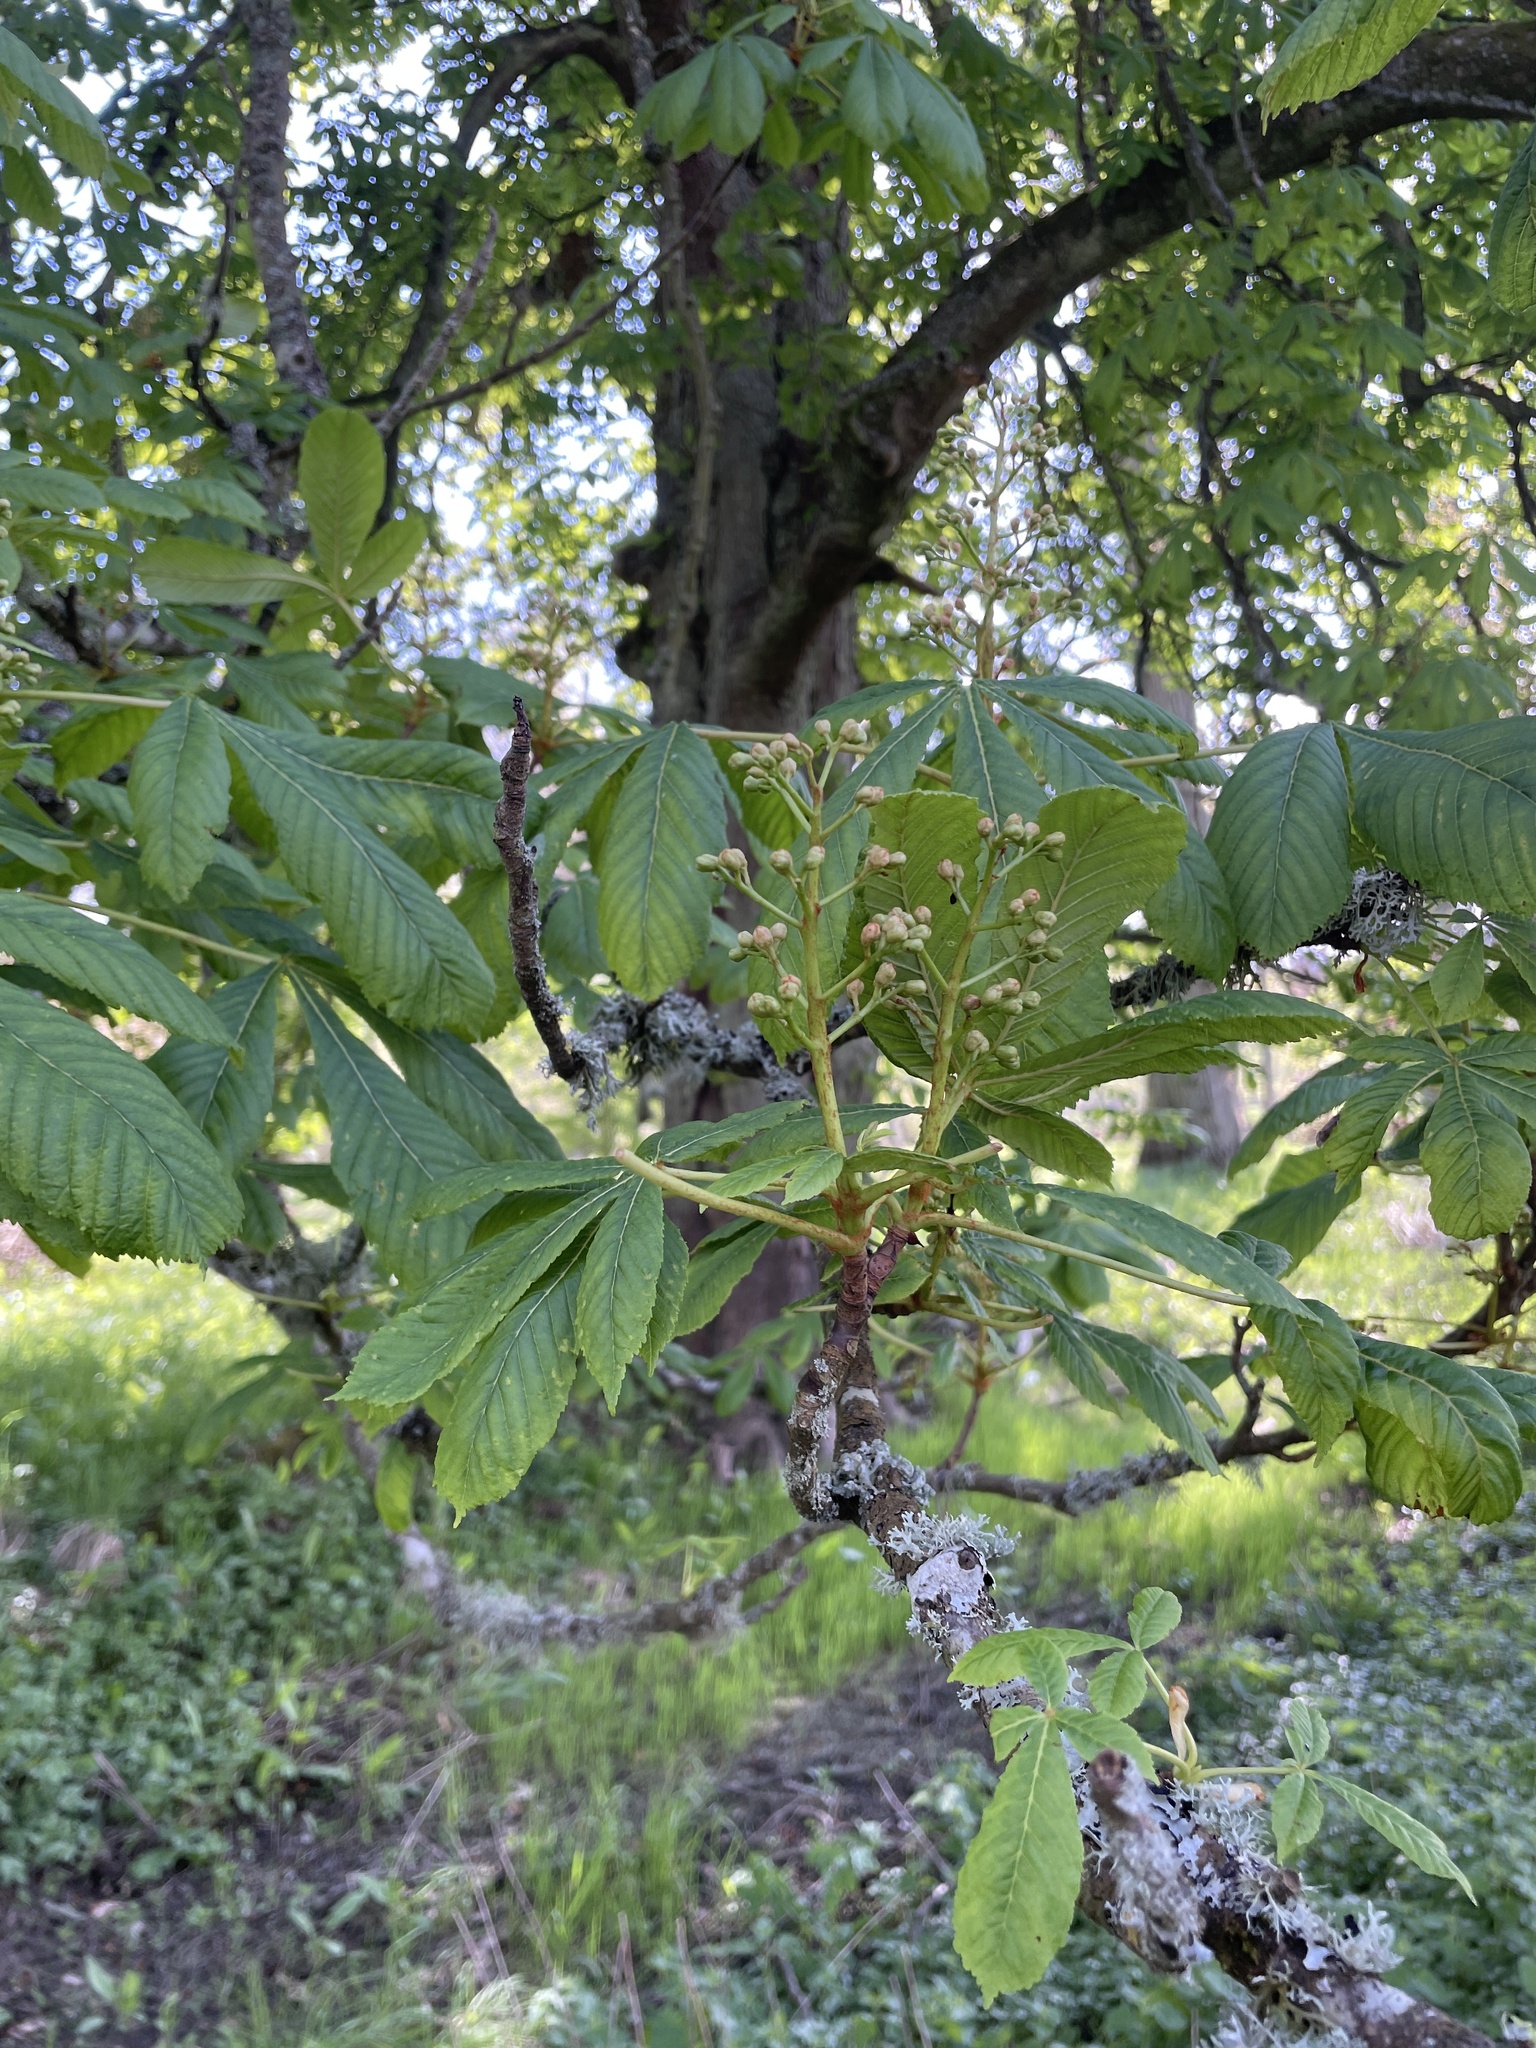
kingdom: Plantae
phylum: Tracheophyta
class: Magnoliopsida
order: Sapindales
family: Sapindaceae
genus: Aesculus
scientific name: Aesculus hippocastanum
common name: Horse-chestnut
